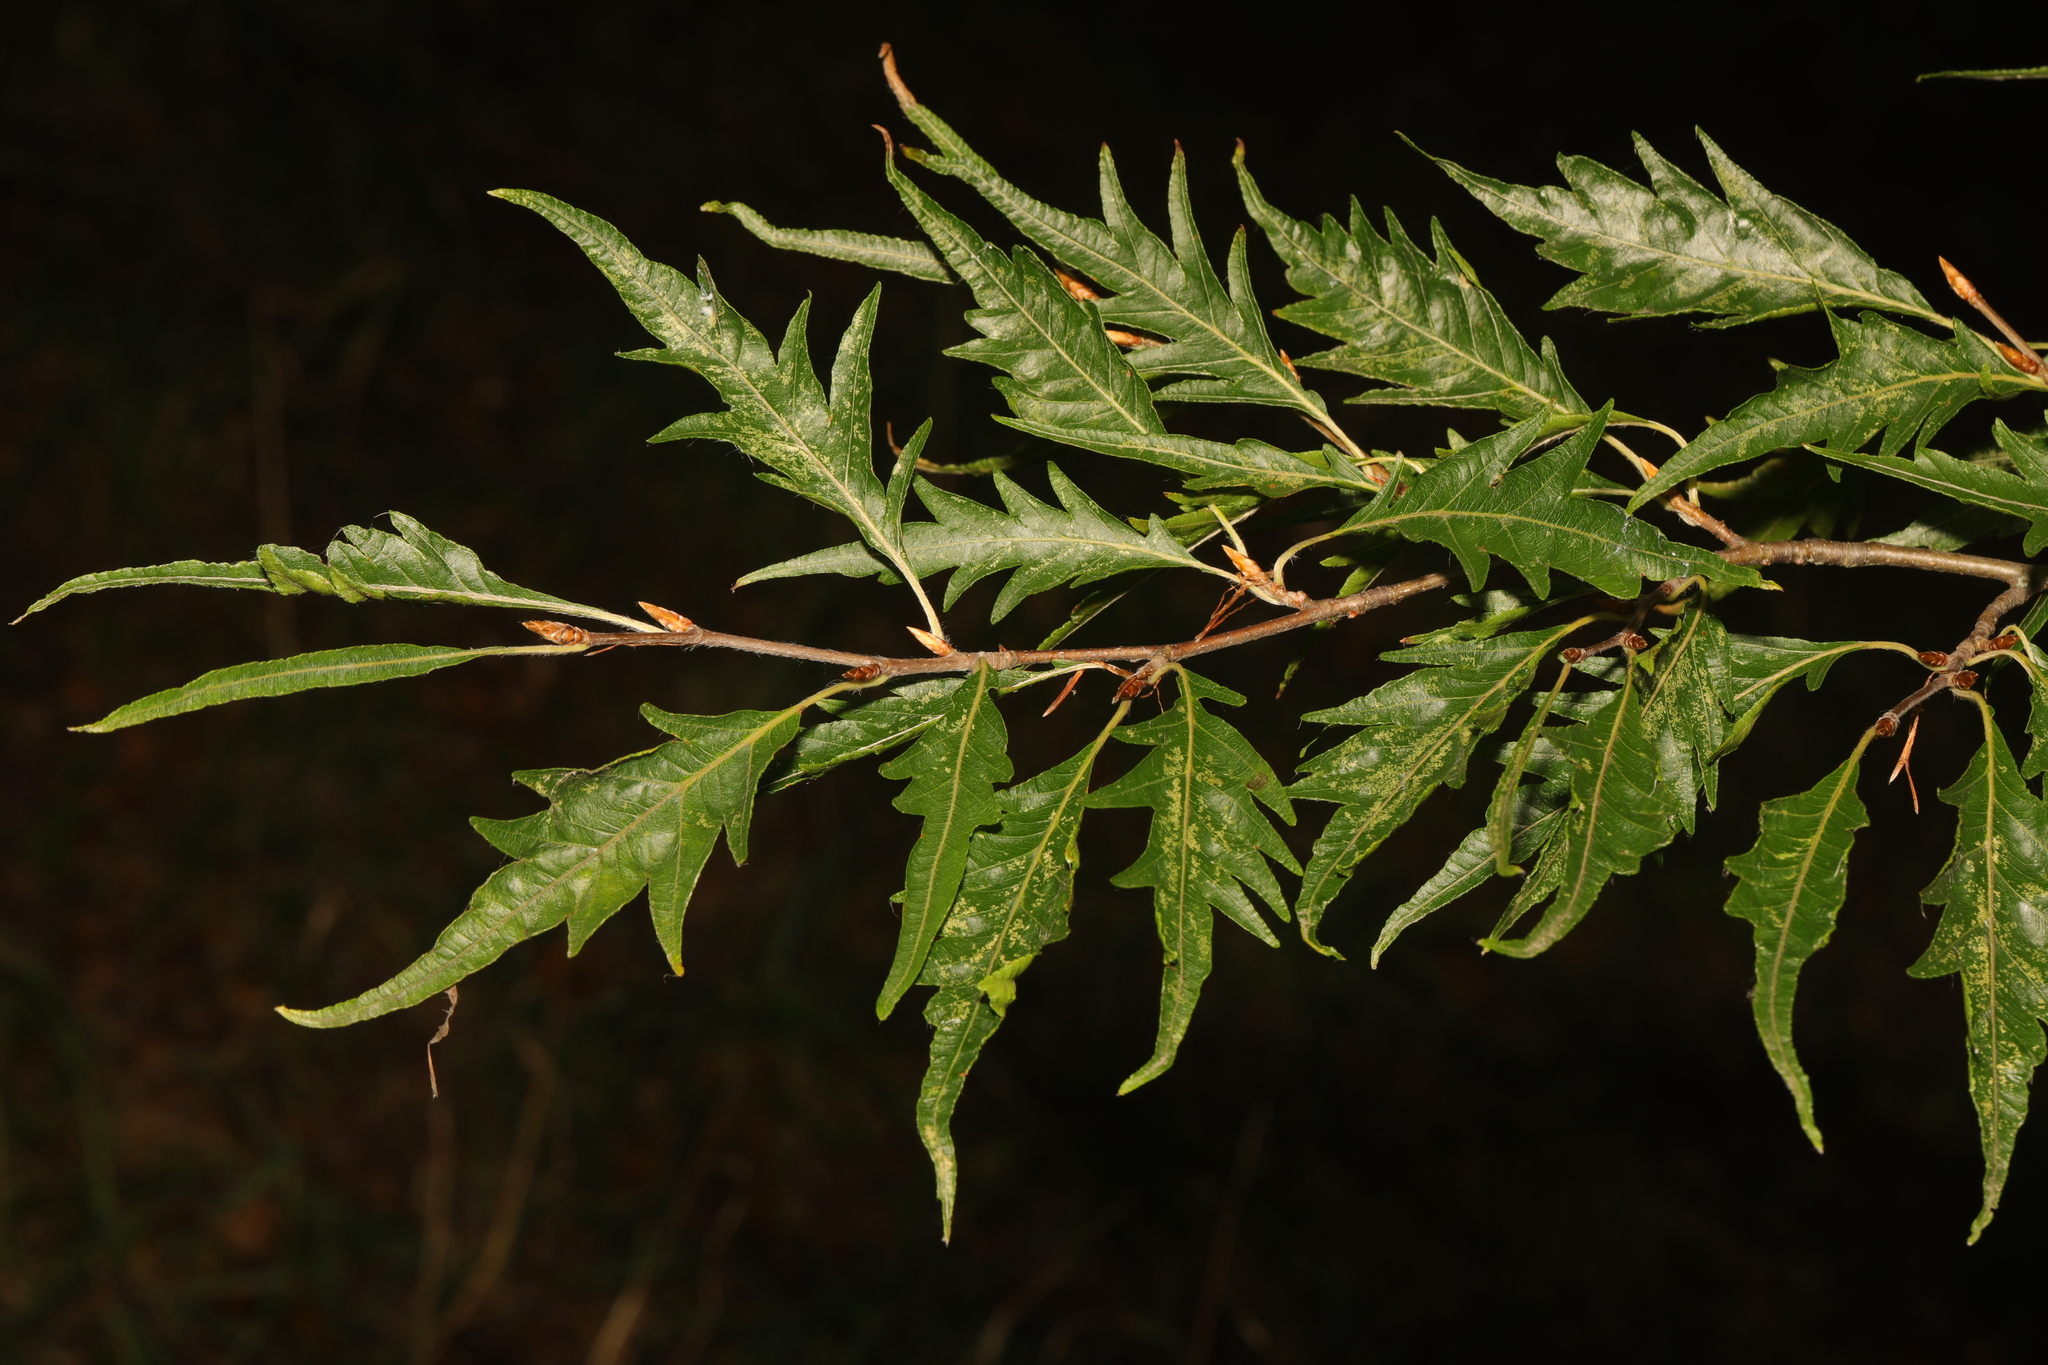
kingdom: Plantae
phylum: Tracheophyta
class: Magnoliopsida
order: Fagales
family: Fagaceae
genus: Fagus
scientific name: Fagus sylvatica
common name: Beech
